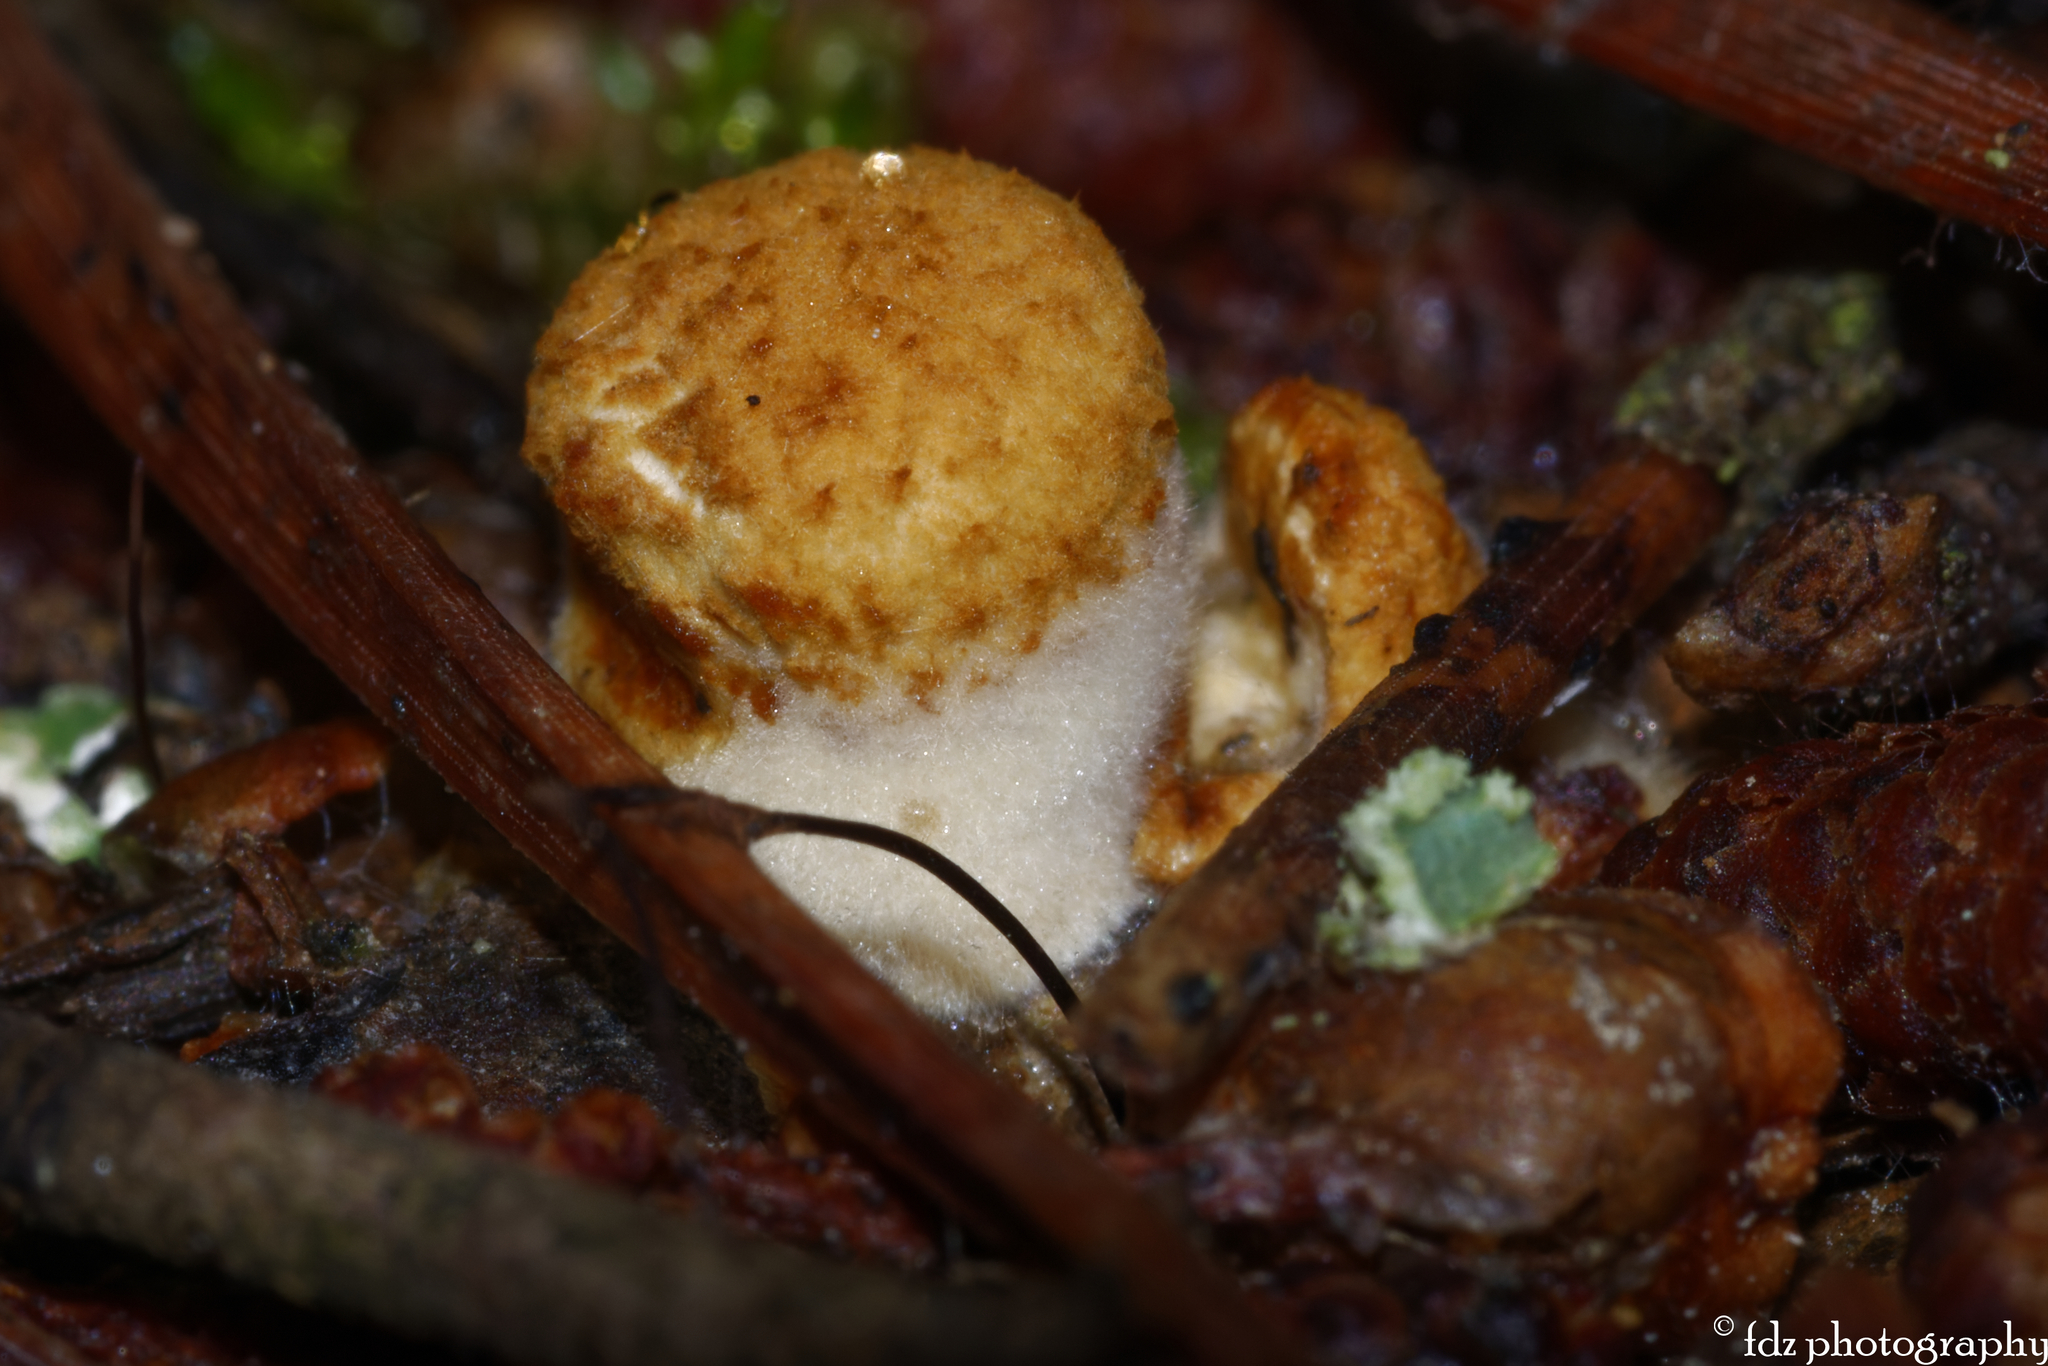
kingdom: Fungi
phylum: Basidiomycota
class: Agaricomycetes
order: Agaricales
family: Nidulariaceae
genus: Crucibulum
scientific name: Crucibulum laeve
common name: Common bird's nest
